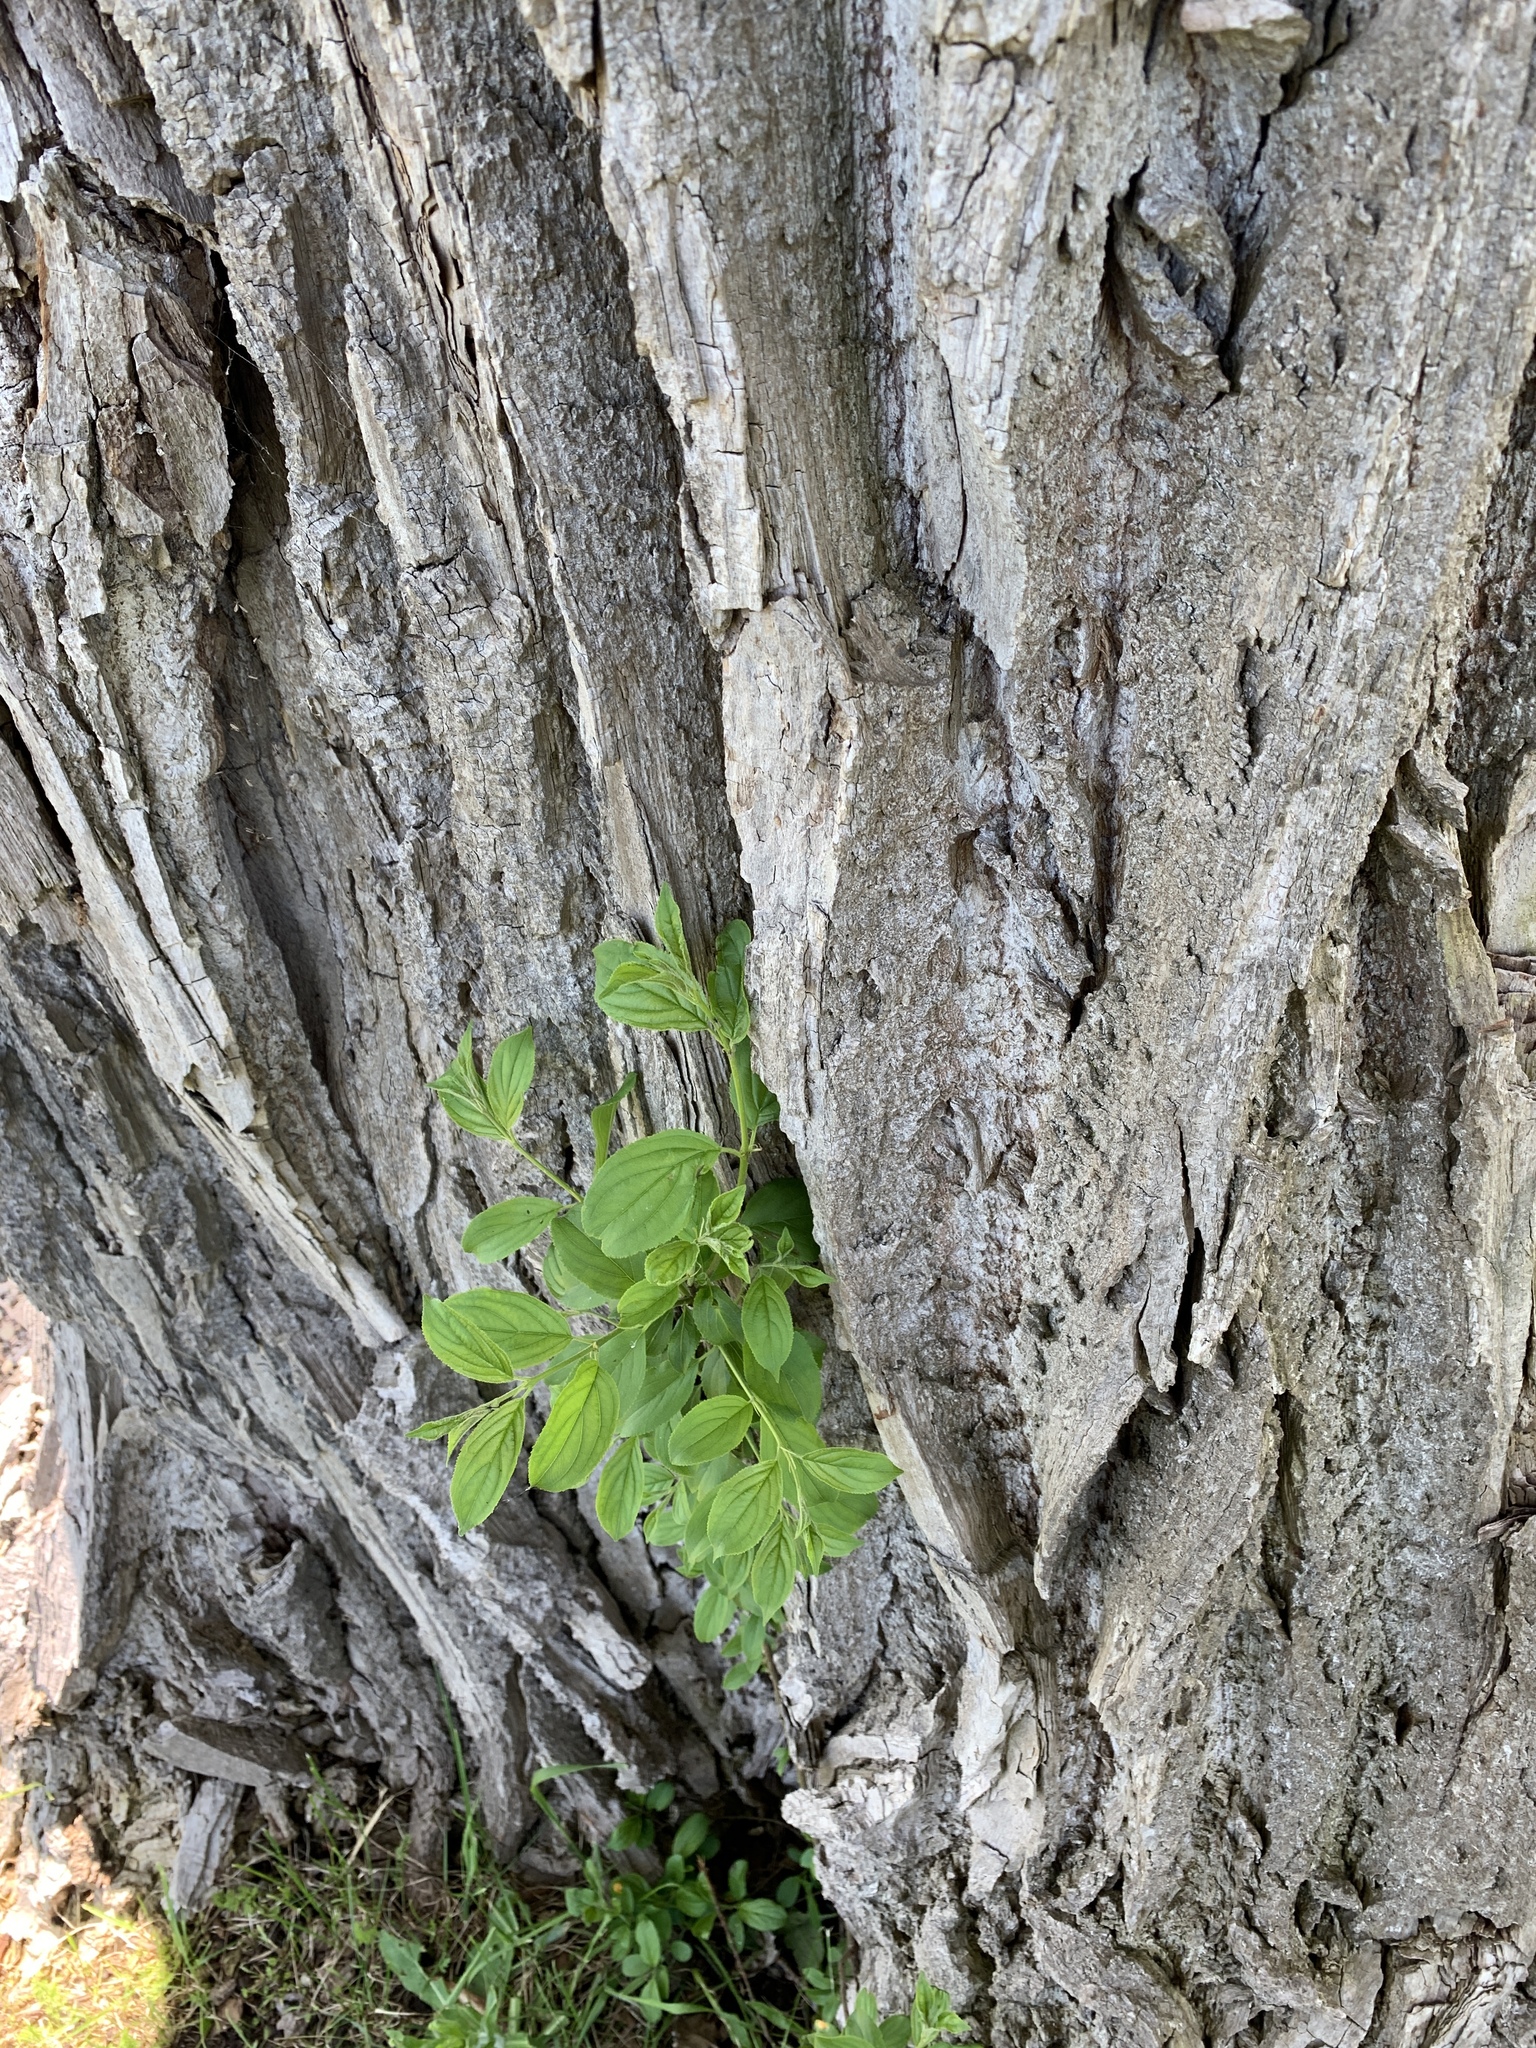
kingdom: Plantae
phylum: Tracheophyta
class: Magnoliopsida
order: Malpighiales
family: Salicaceae
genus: Populus
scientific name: Populus deltoides
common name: Eastern cottonwood
